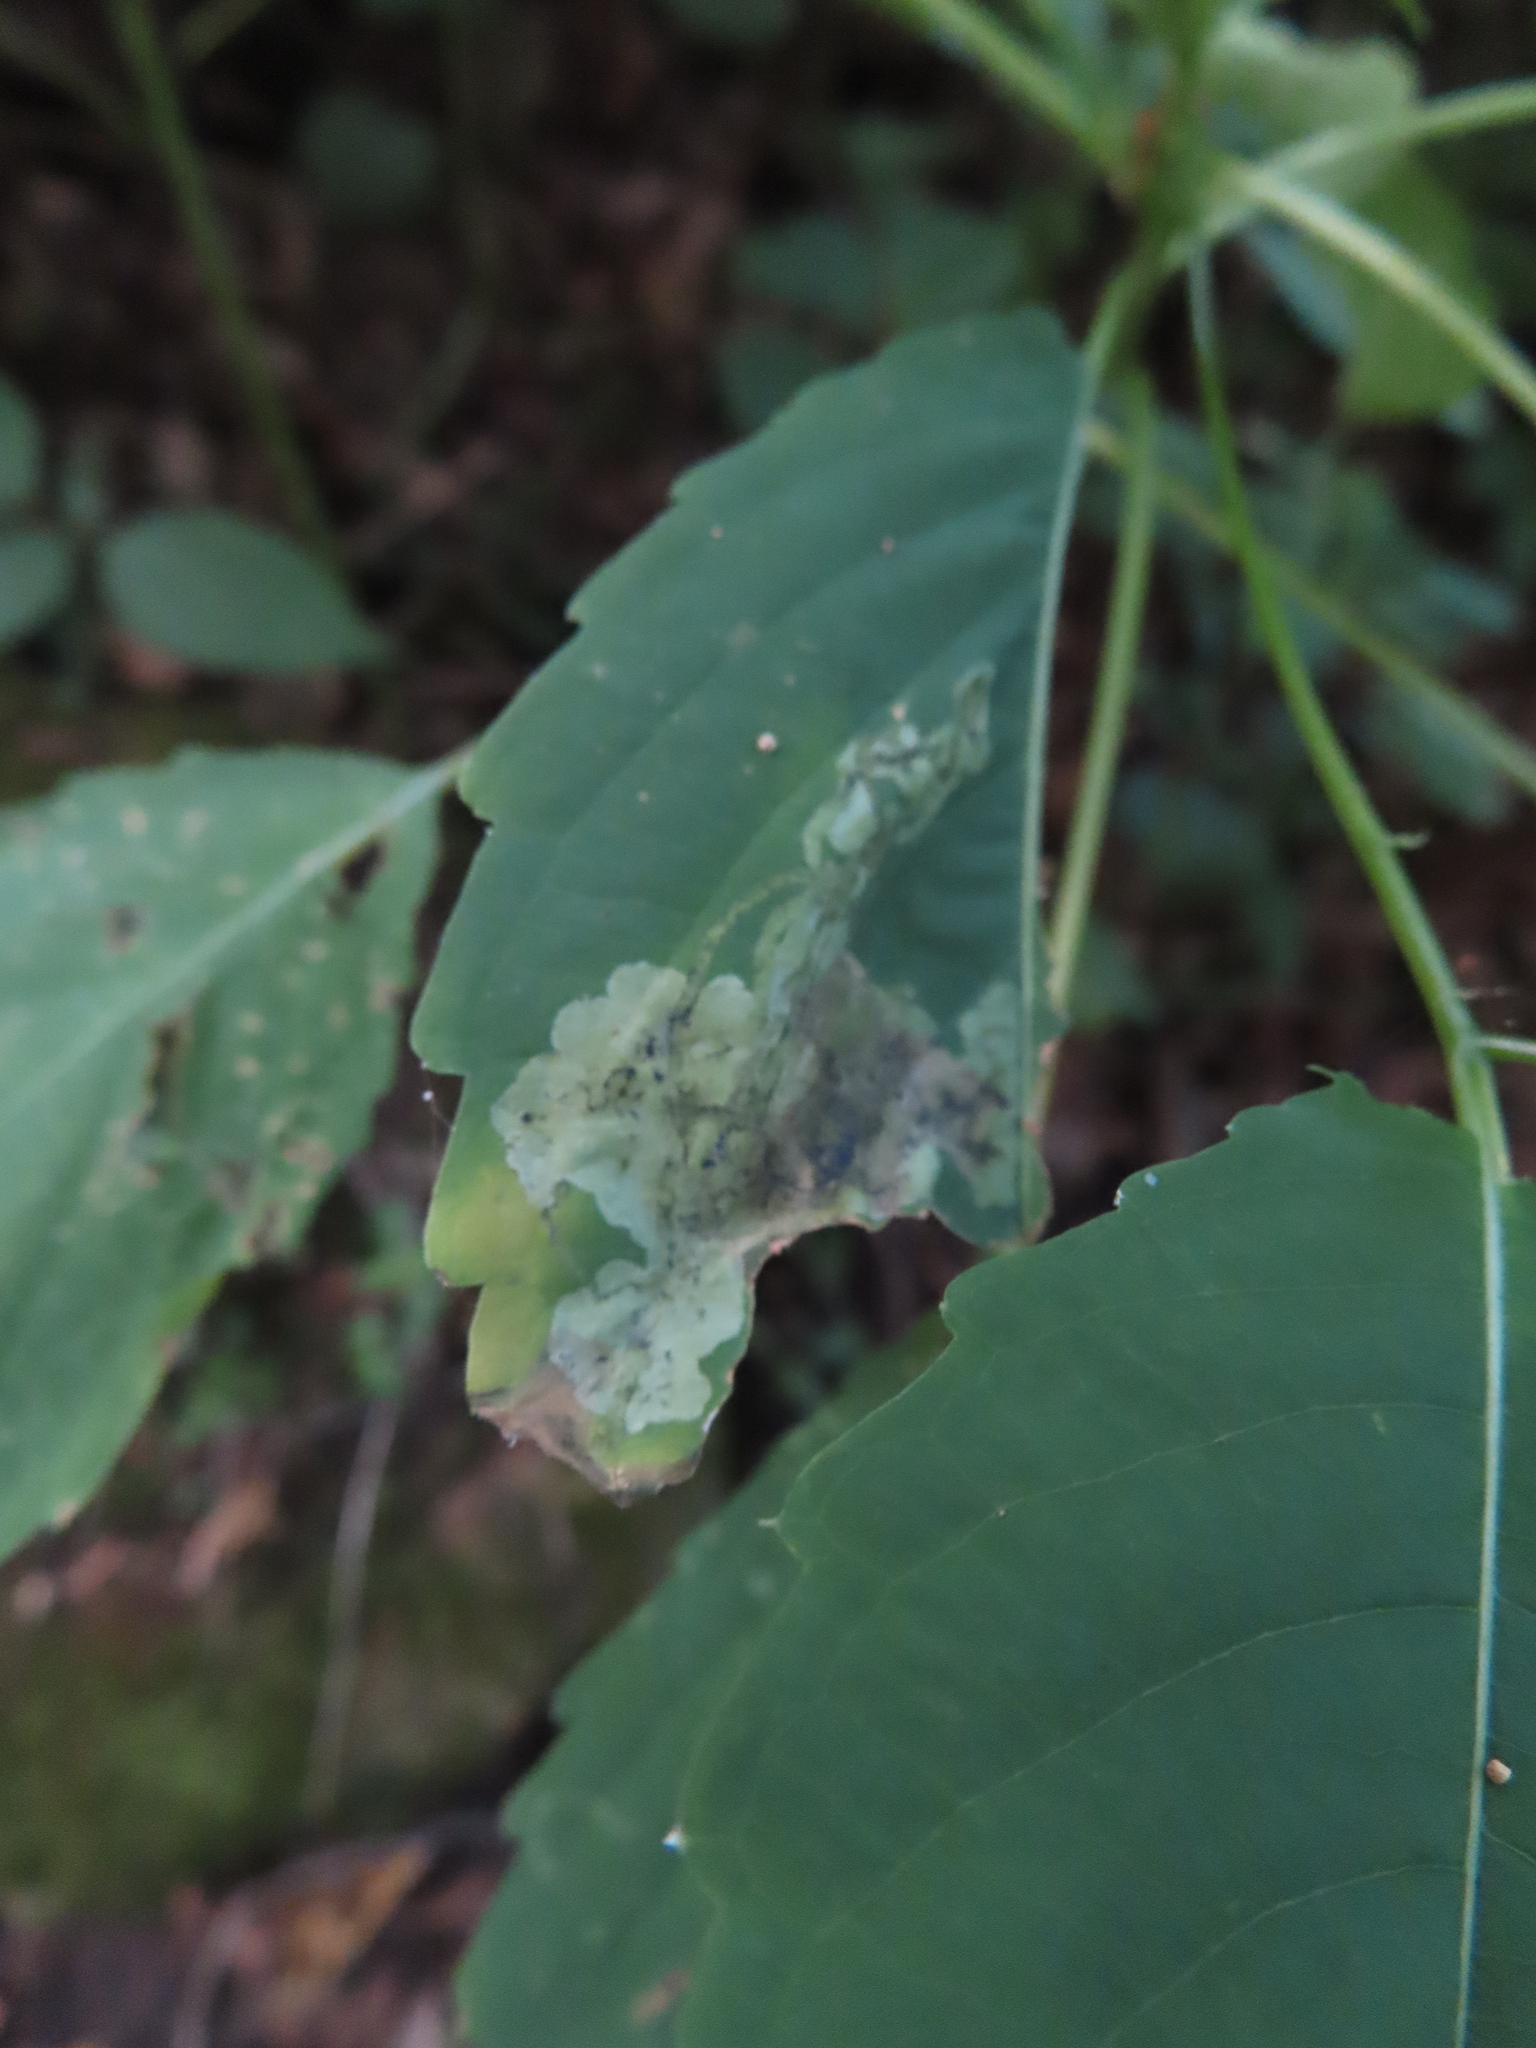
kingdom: Animalia
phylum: Arthropoda
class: Insecta
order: Diptera
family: Agromyzidae
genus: Phytoliriomyza
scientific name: Phytoliriomyza melampyga
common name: Jewelweed leaf-miner fly
